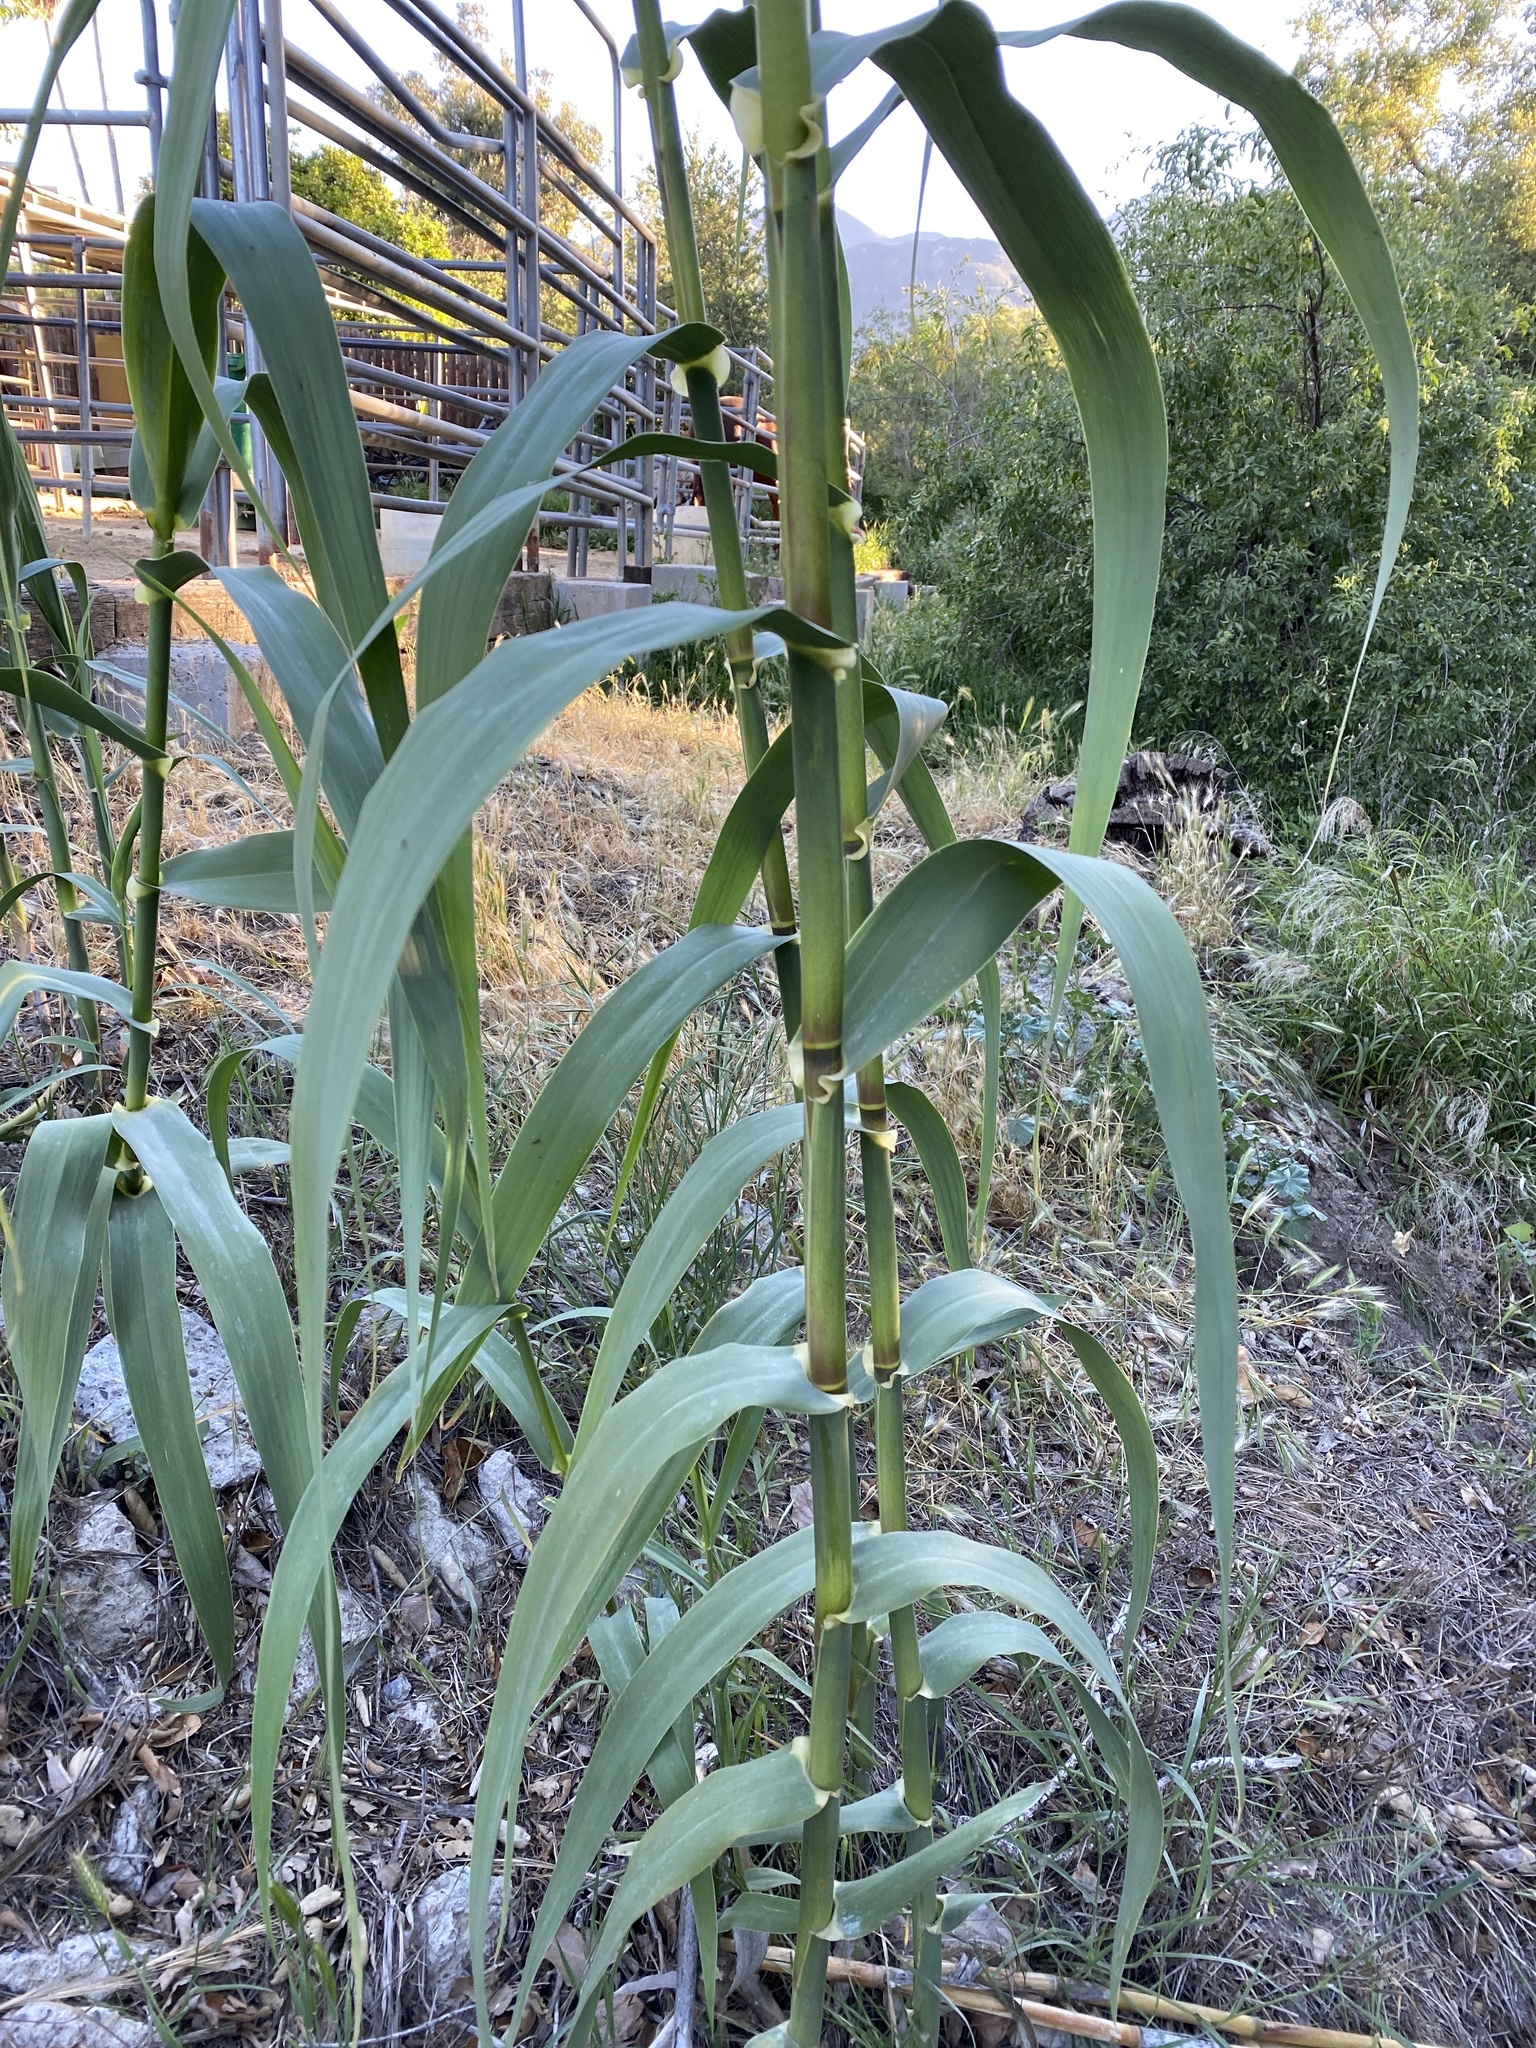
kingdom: Plantae
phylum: Tracheophyta
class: Liliopsida
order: Poales
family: Poaceae
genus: Arundo
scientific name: Arundo donax
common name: Giant reed
